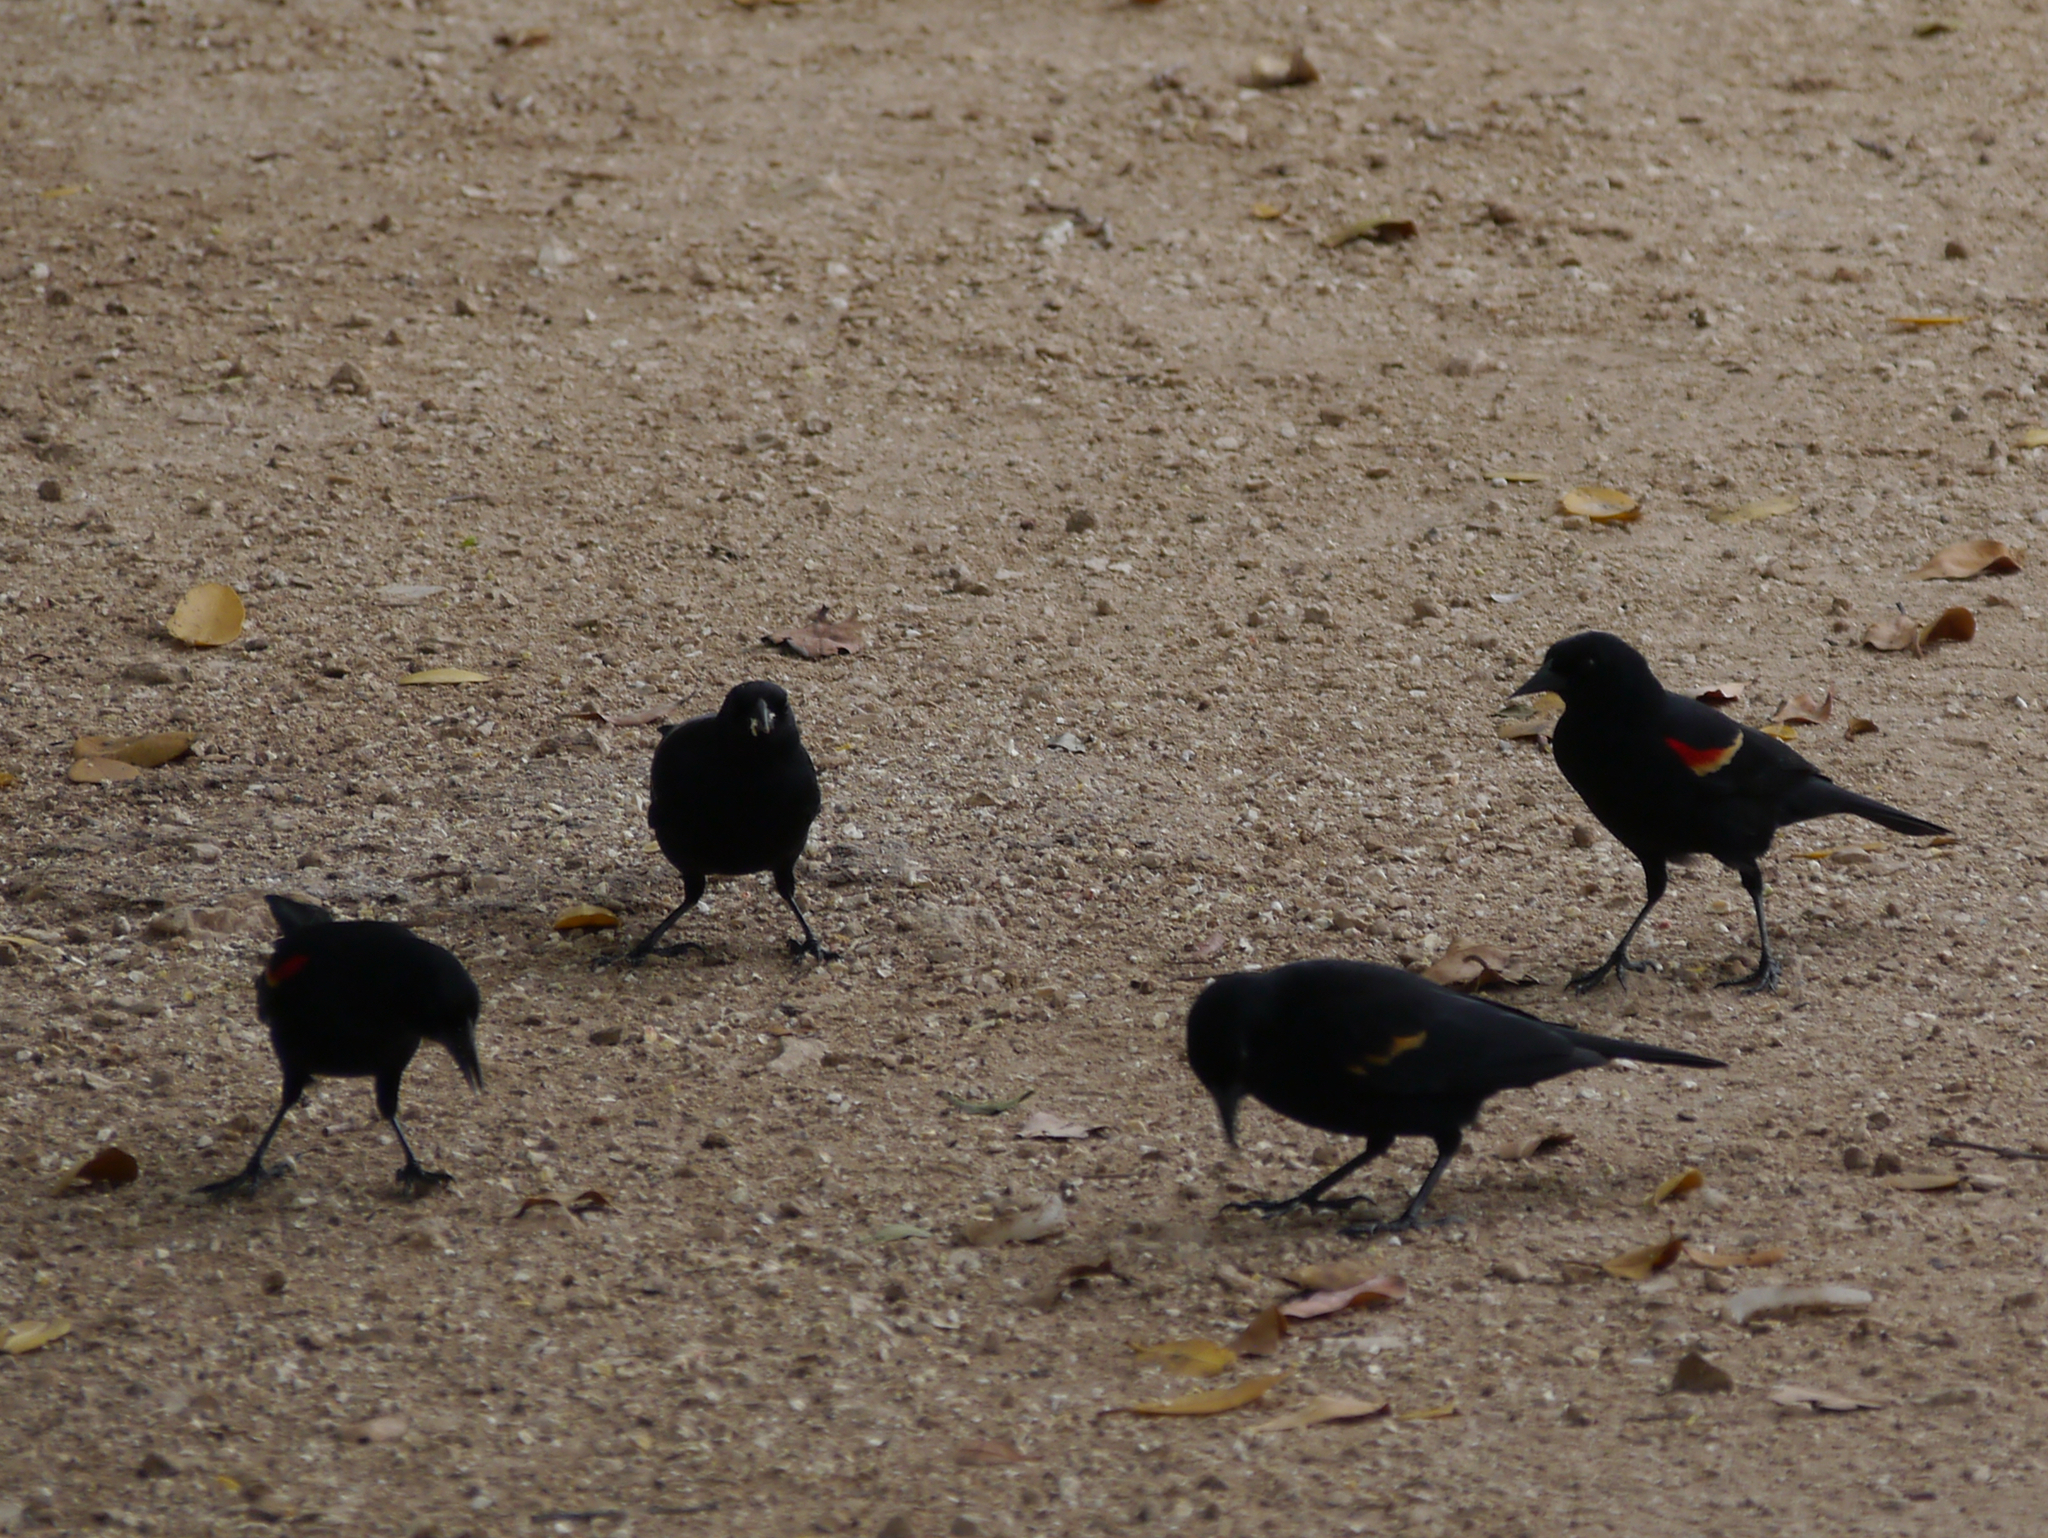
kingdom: Animalia
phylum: Chordata
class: Aves
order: Passeriformes
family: Icteridae
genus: Agelaius
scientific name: Agelaius phoeniceus
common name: Red-winged blackbird
